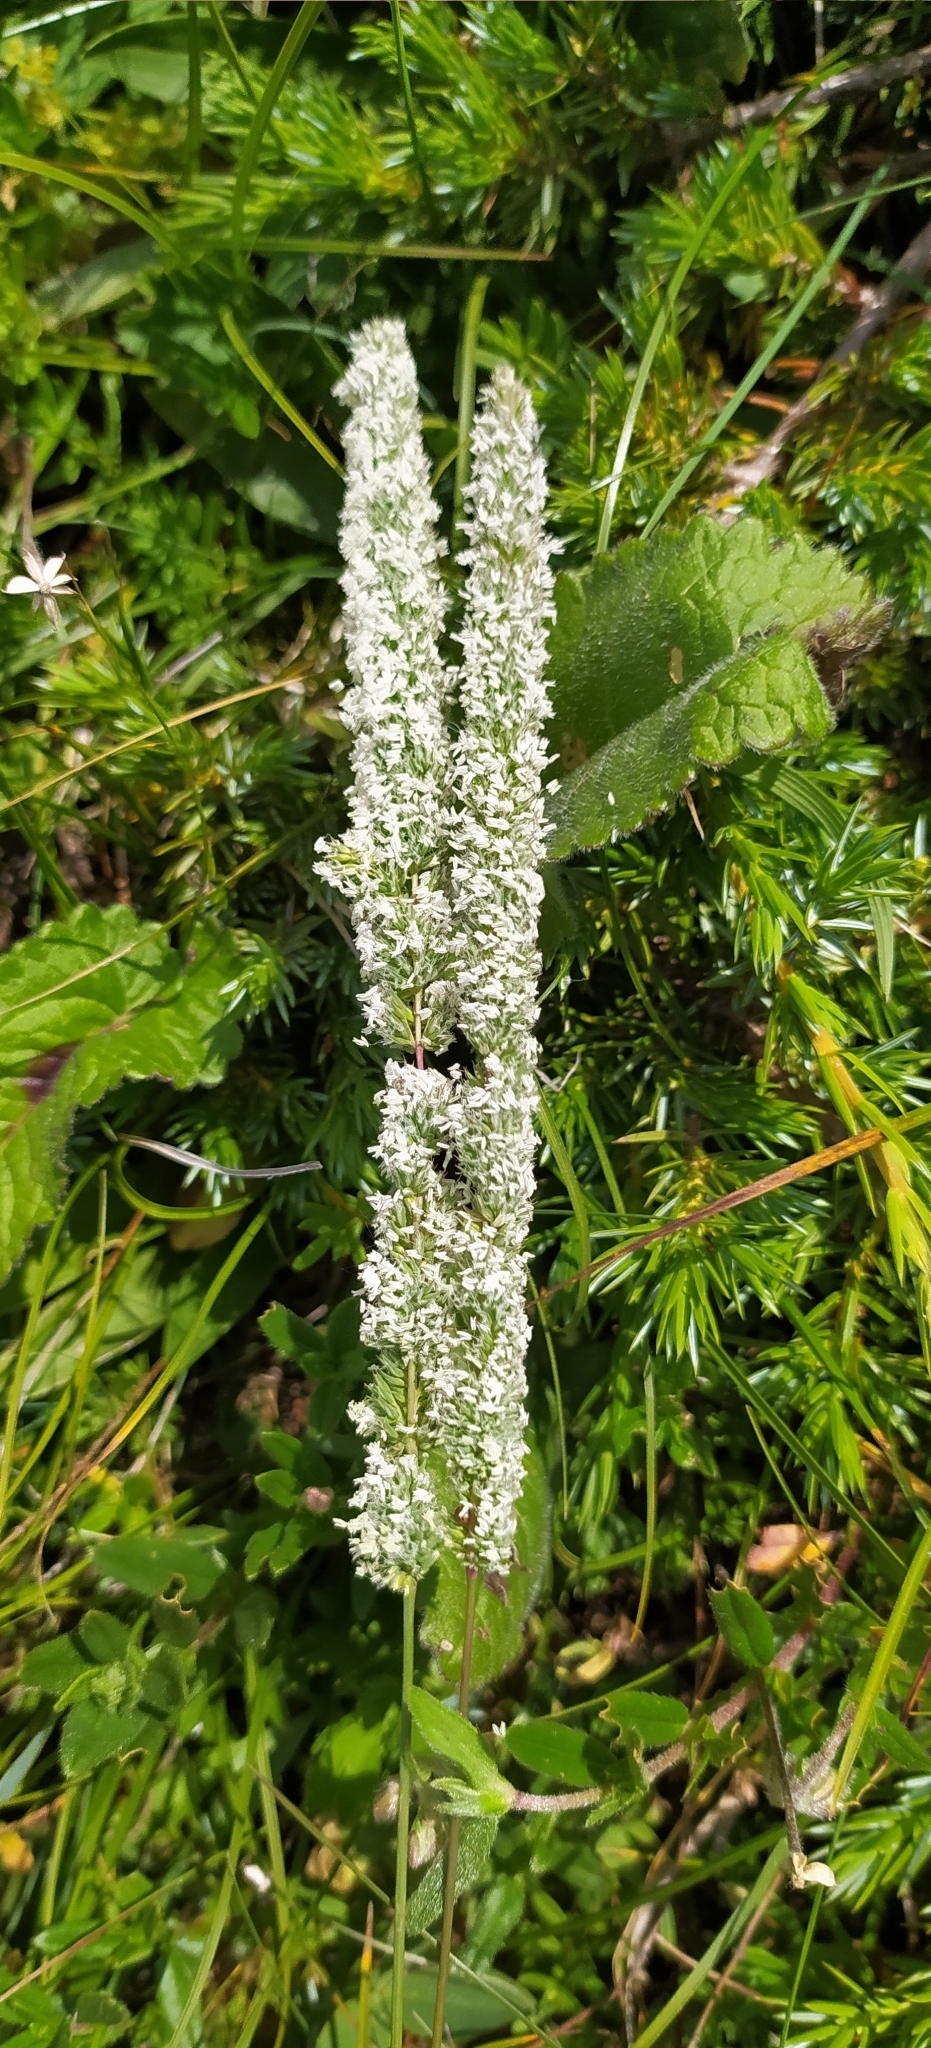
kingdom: Plantae
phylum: Tracheophyta
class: Liliopsida
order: Poales
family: Poaceae
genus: Phleum
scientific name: Phleum phleoides
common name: Purple-stem cat's-tail
